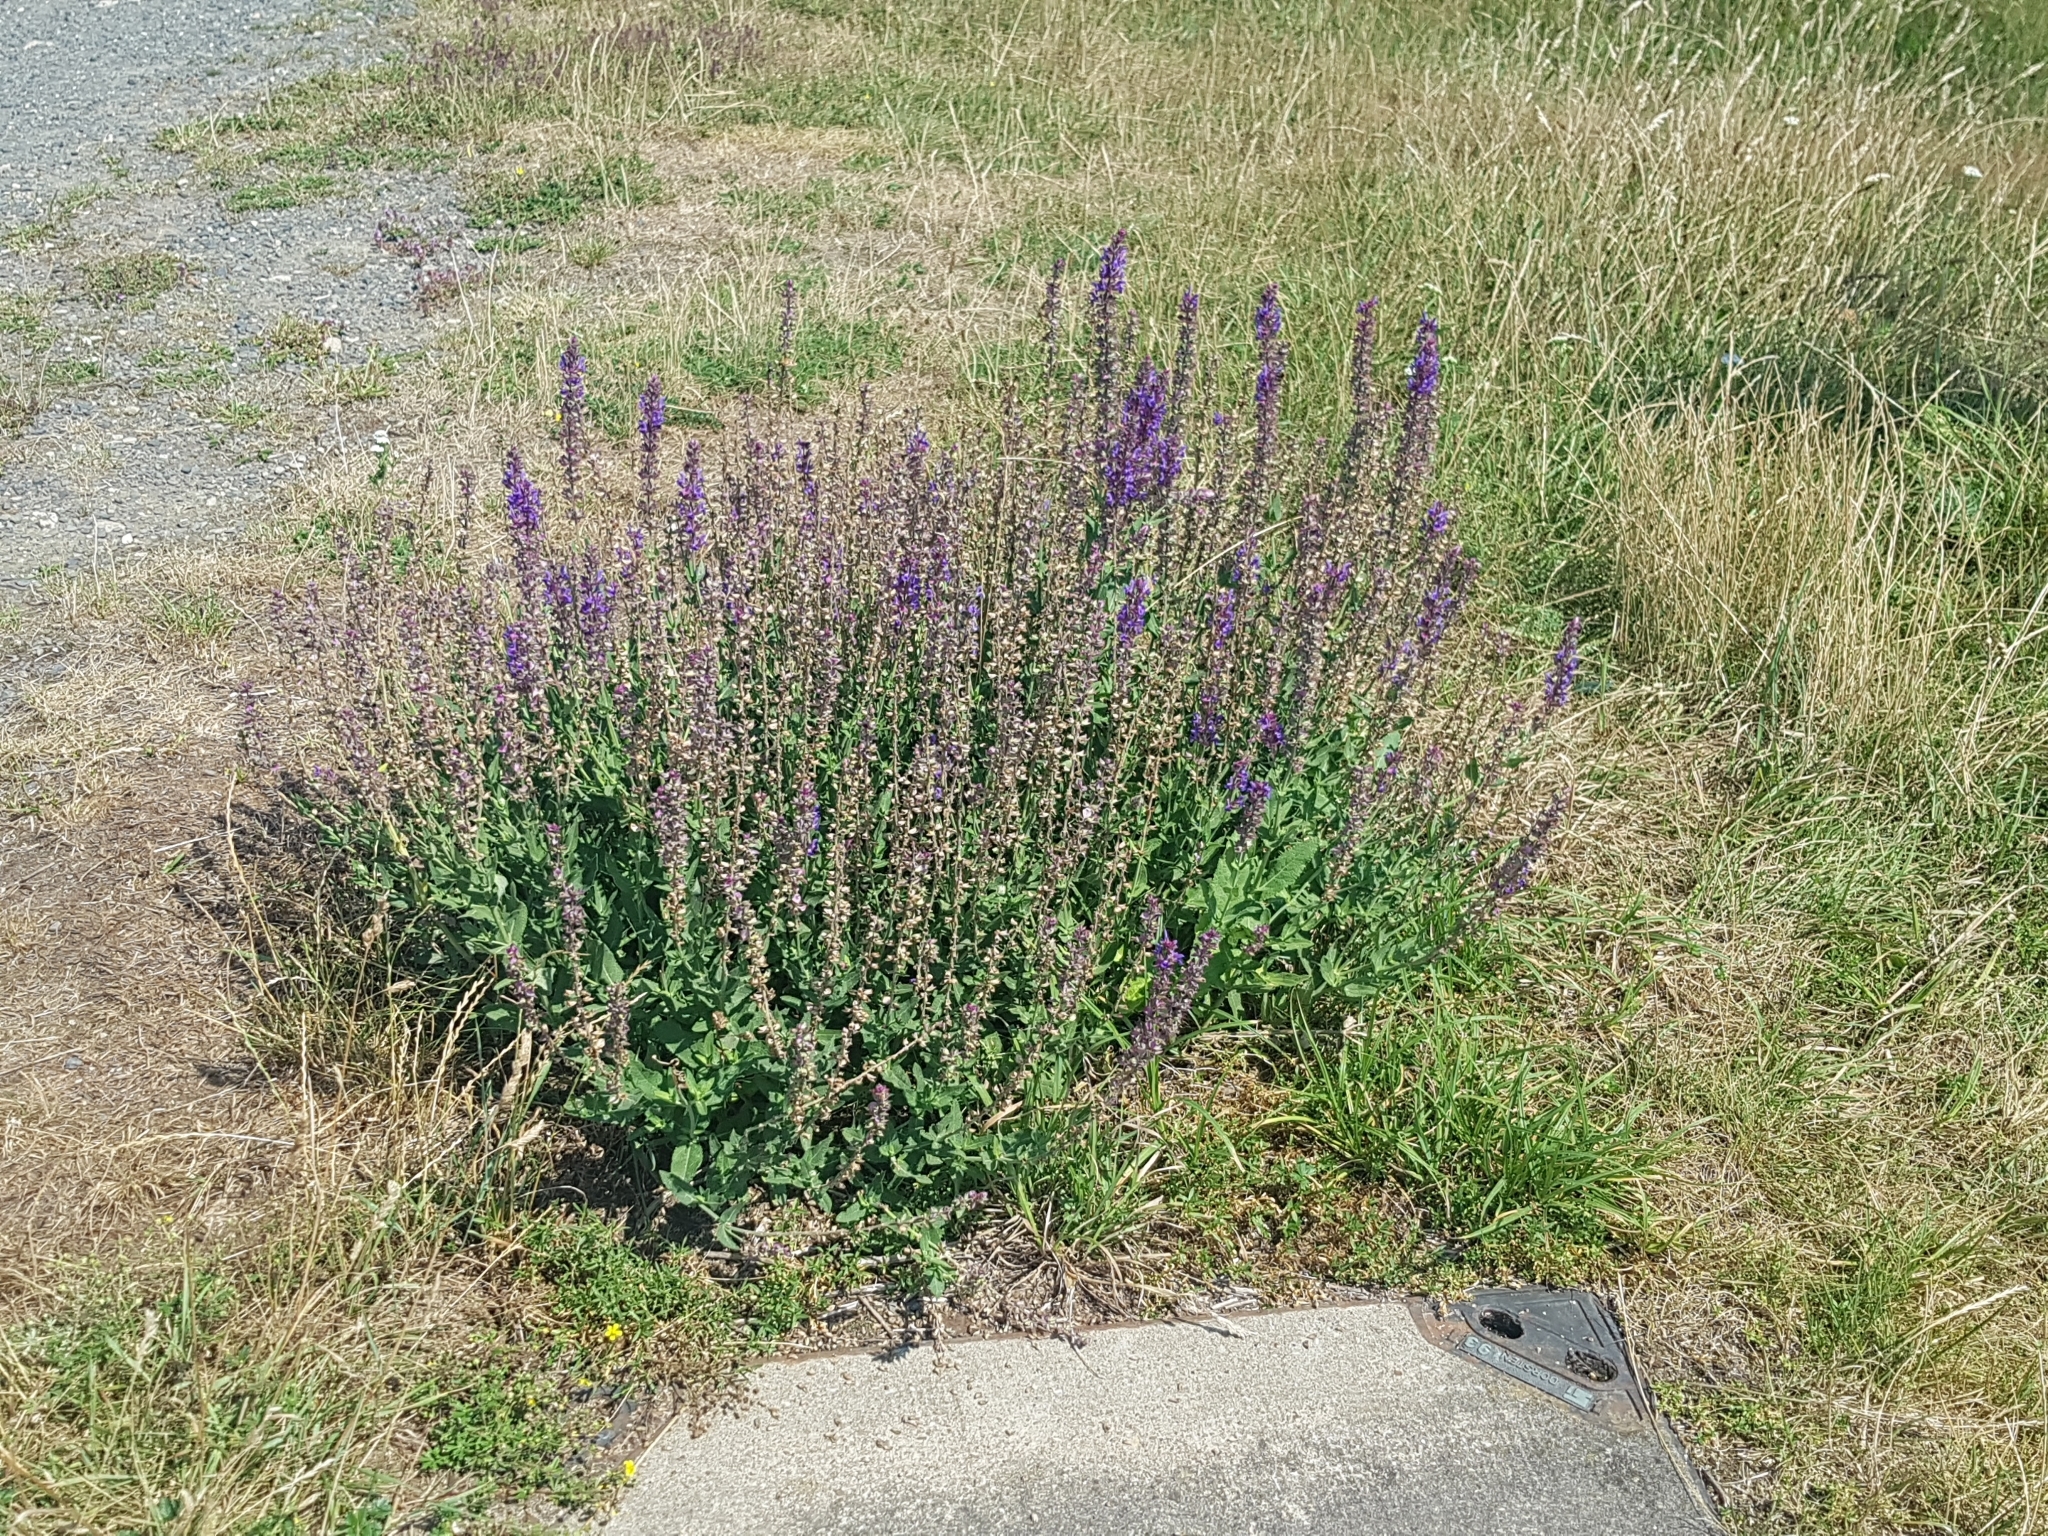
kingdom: Plantae
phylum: Tracheophyta
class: Magnoliopsida
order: Lamiales
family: Lamiaceae
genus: Salvia
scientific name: Salvia nemorosa
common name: Balkan clary
